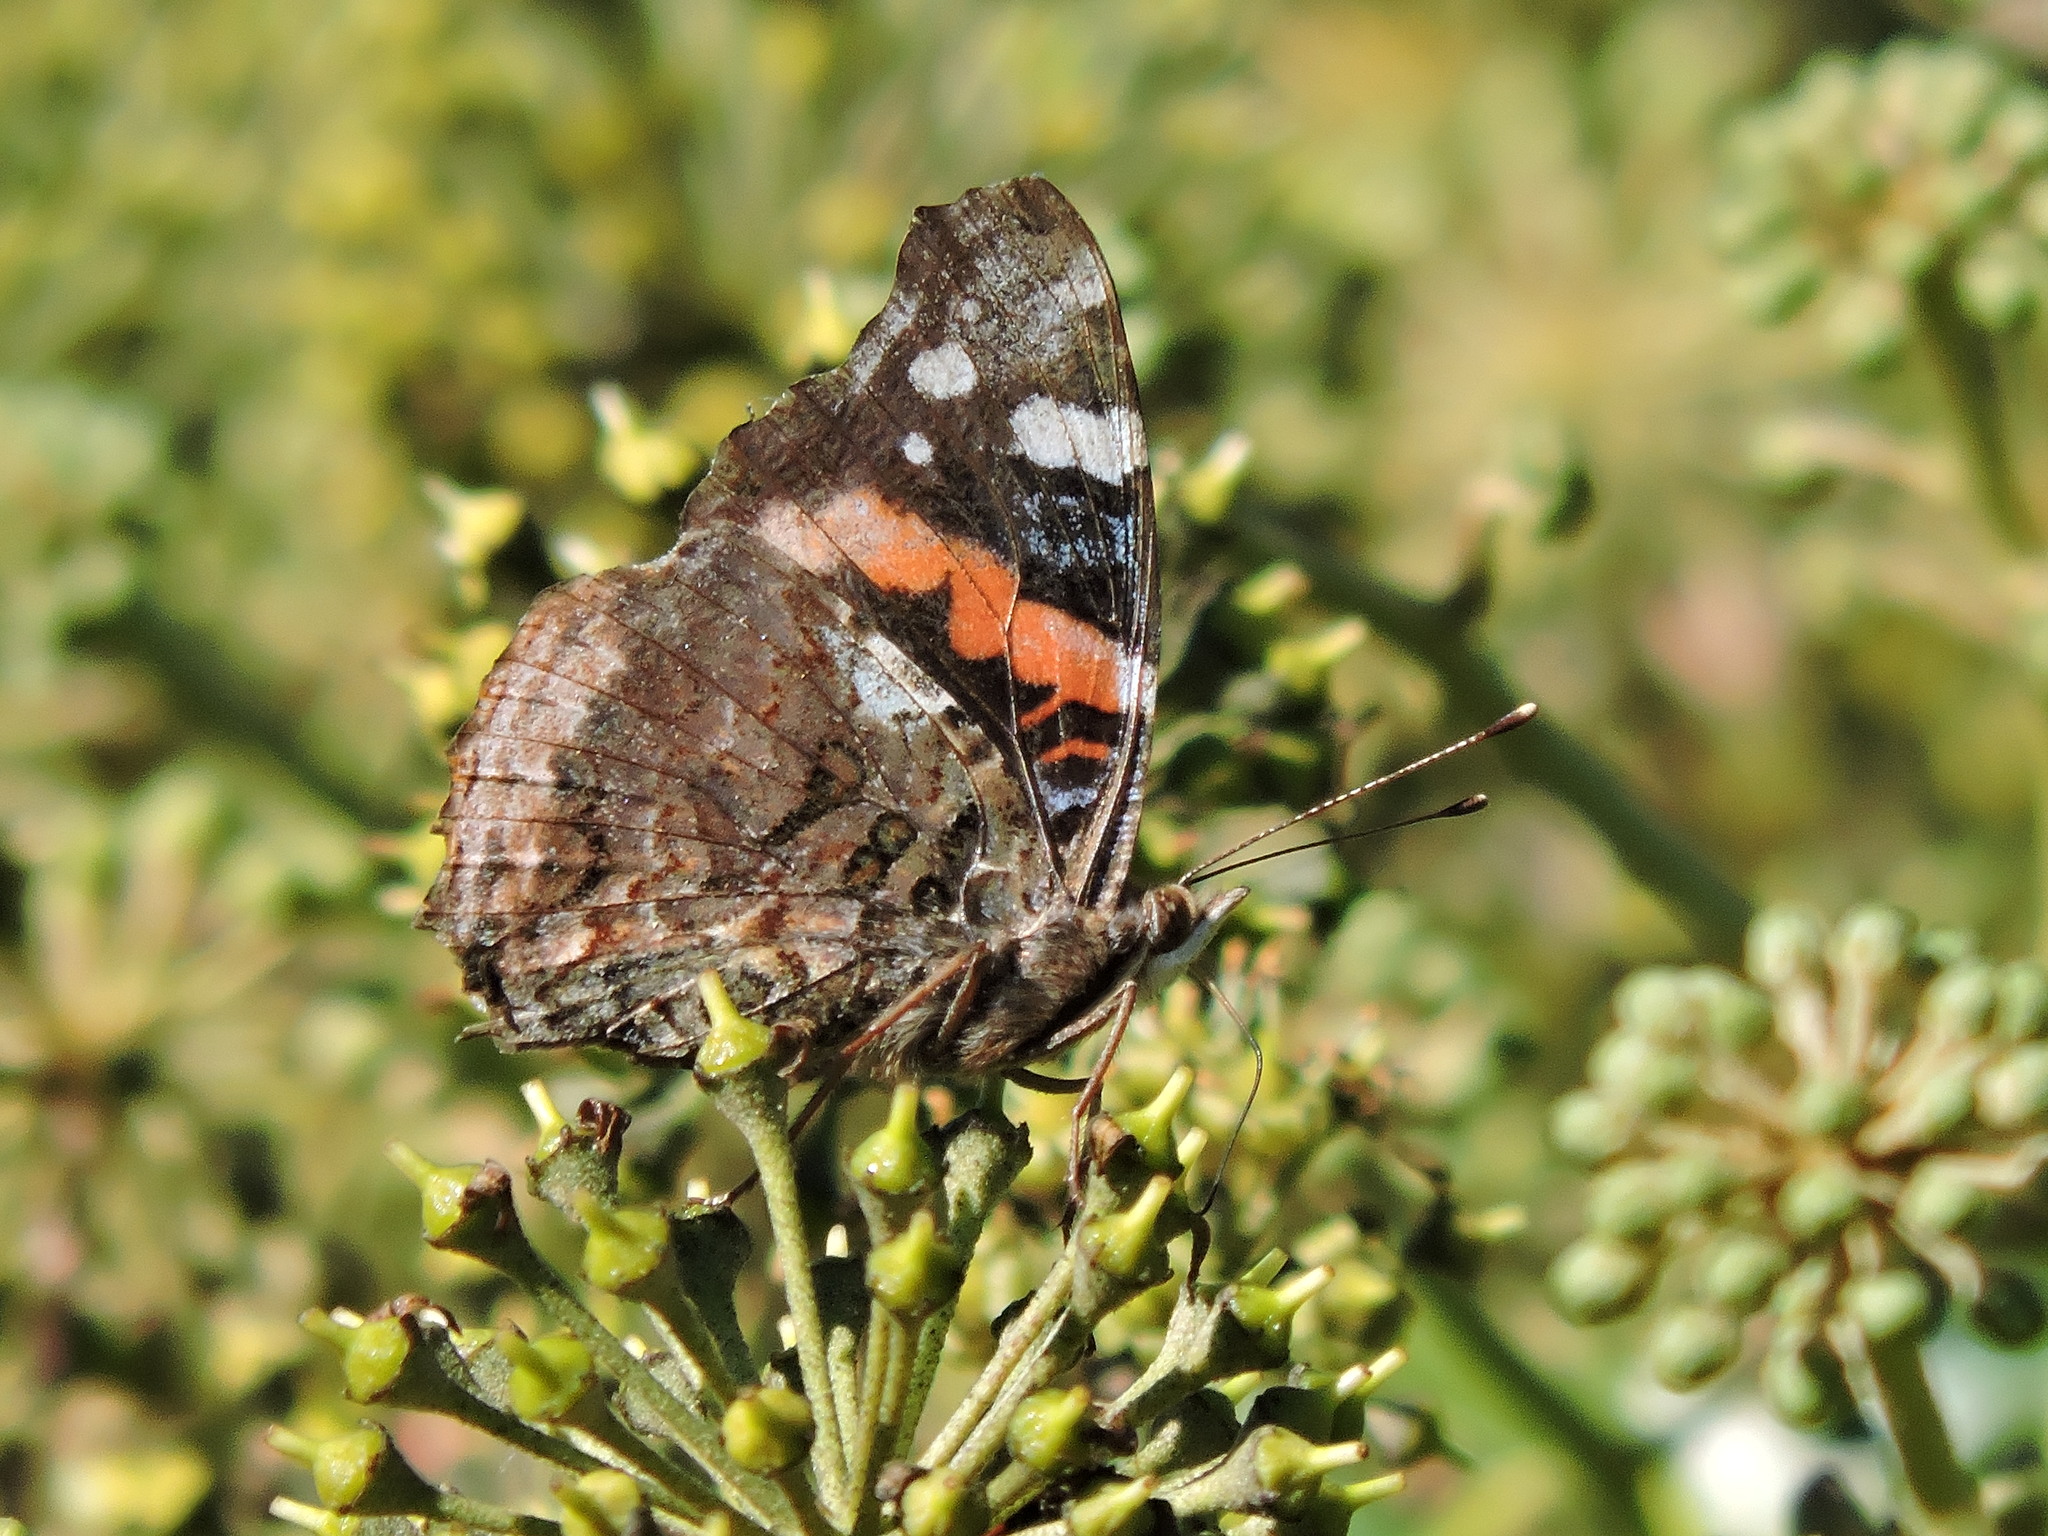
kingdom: Animalia
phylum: Arthropoda
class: Insecta
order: Lepidoptera
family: Nymphalidae
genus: Vanessa
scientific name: Vanessa atalanta
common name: Red admiral
